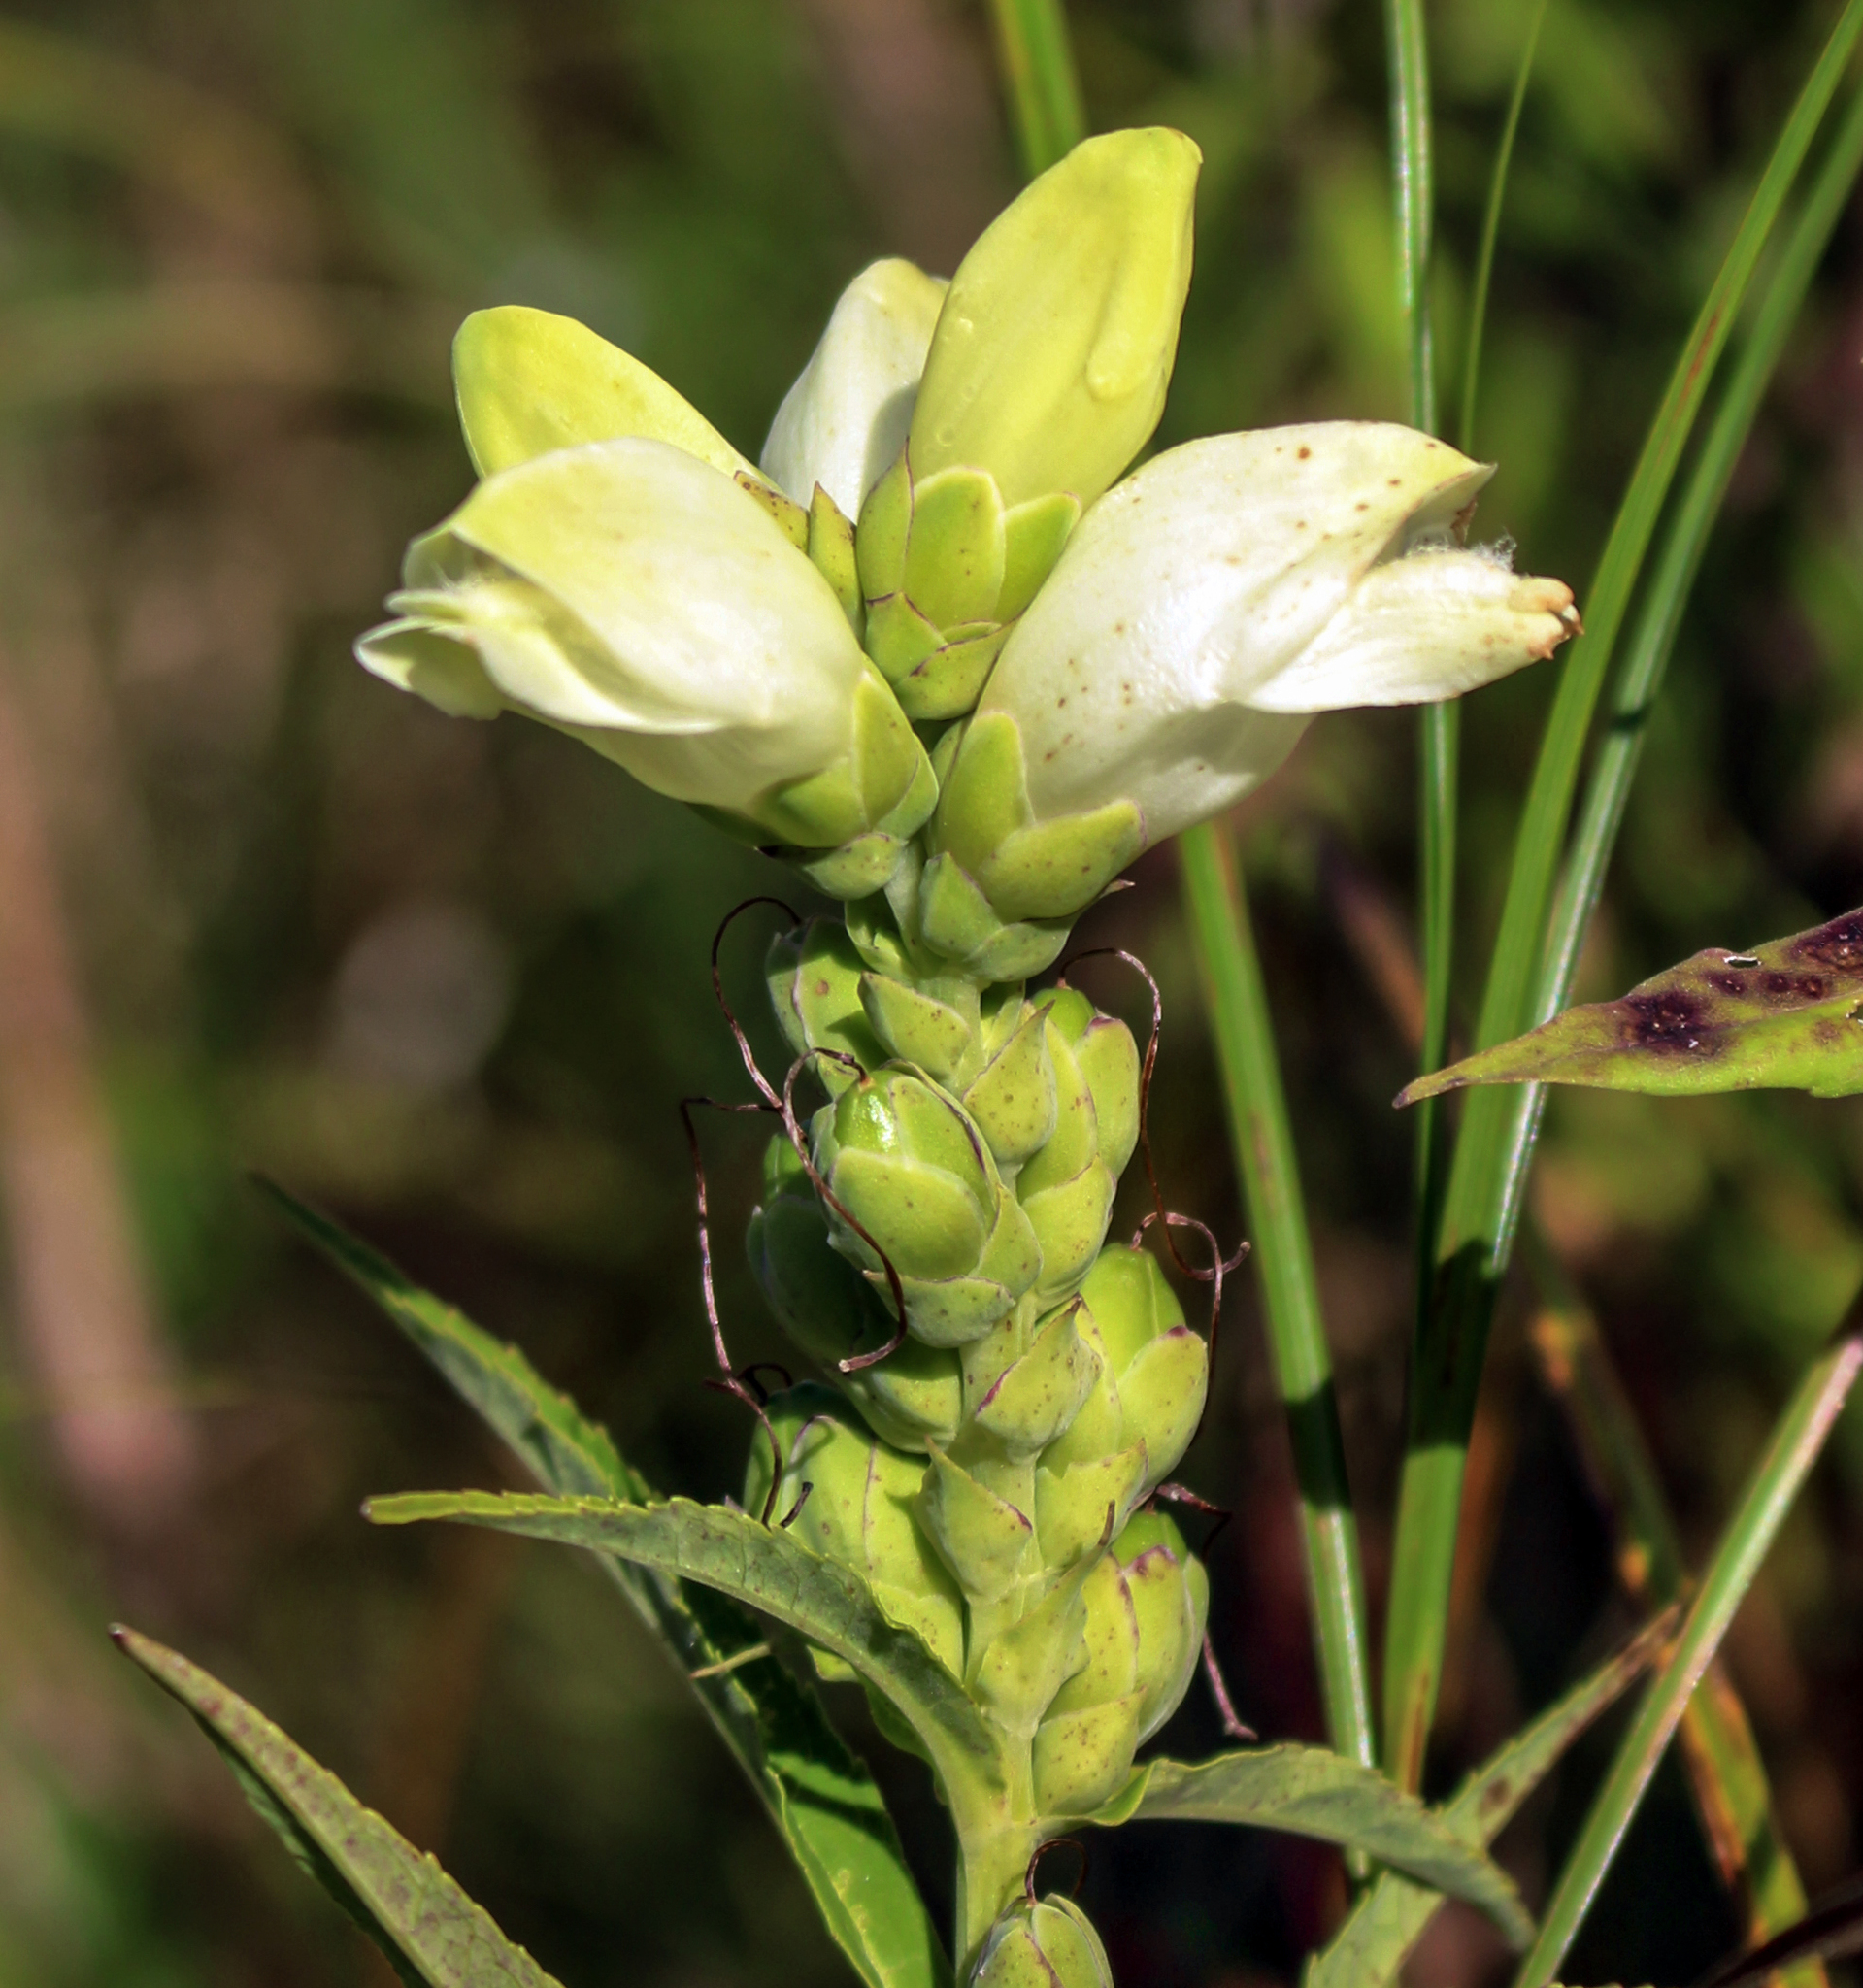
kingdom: Plantae
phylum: Tracheophyta
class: Magnoliopsida
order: Lamiales
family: Plantaginaceae
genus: Chelone
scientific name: Chelone glabra
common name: Snakehead
